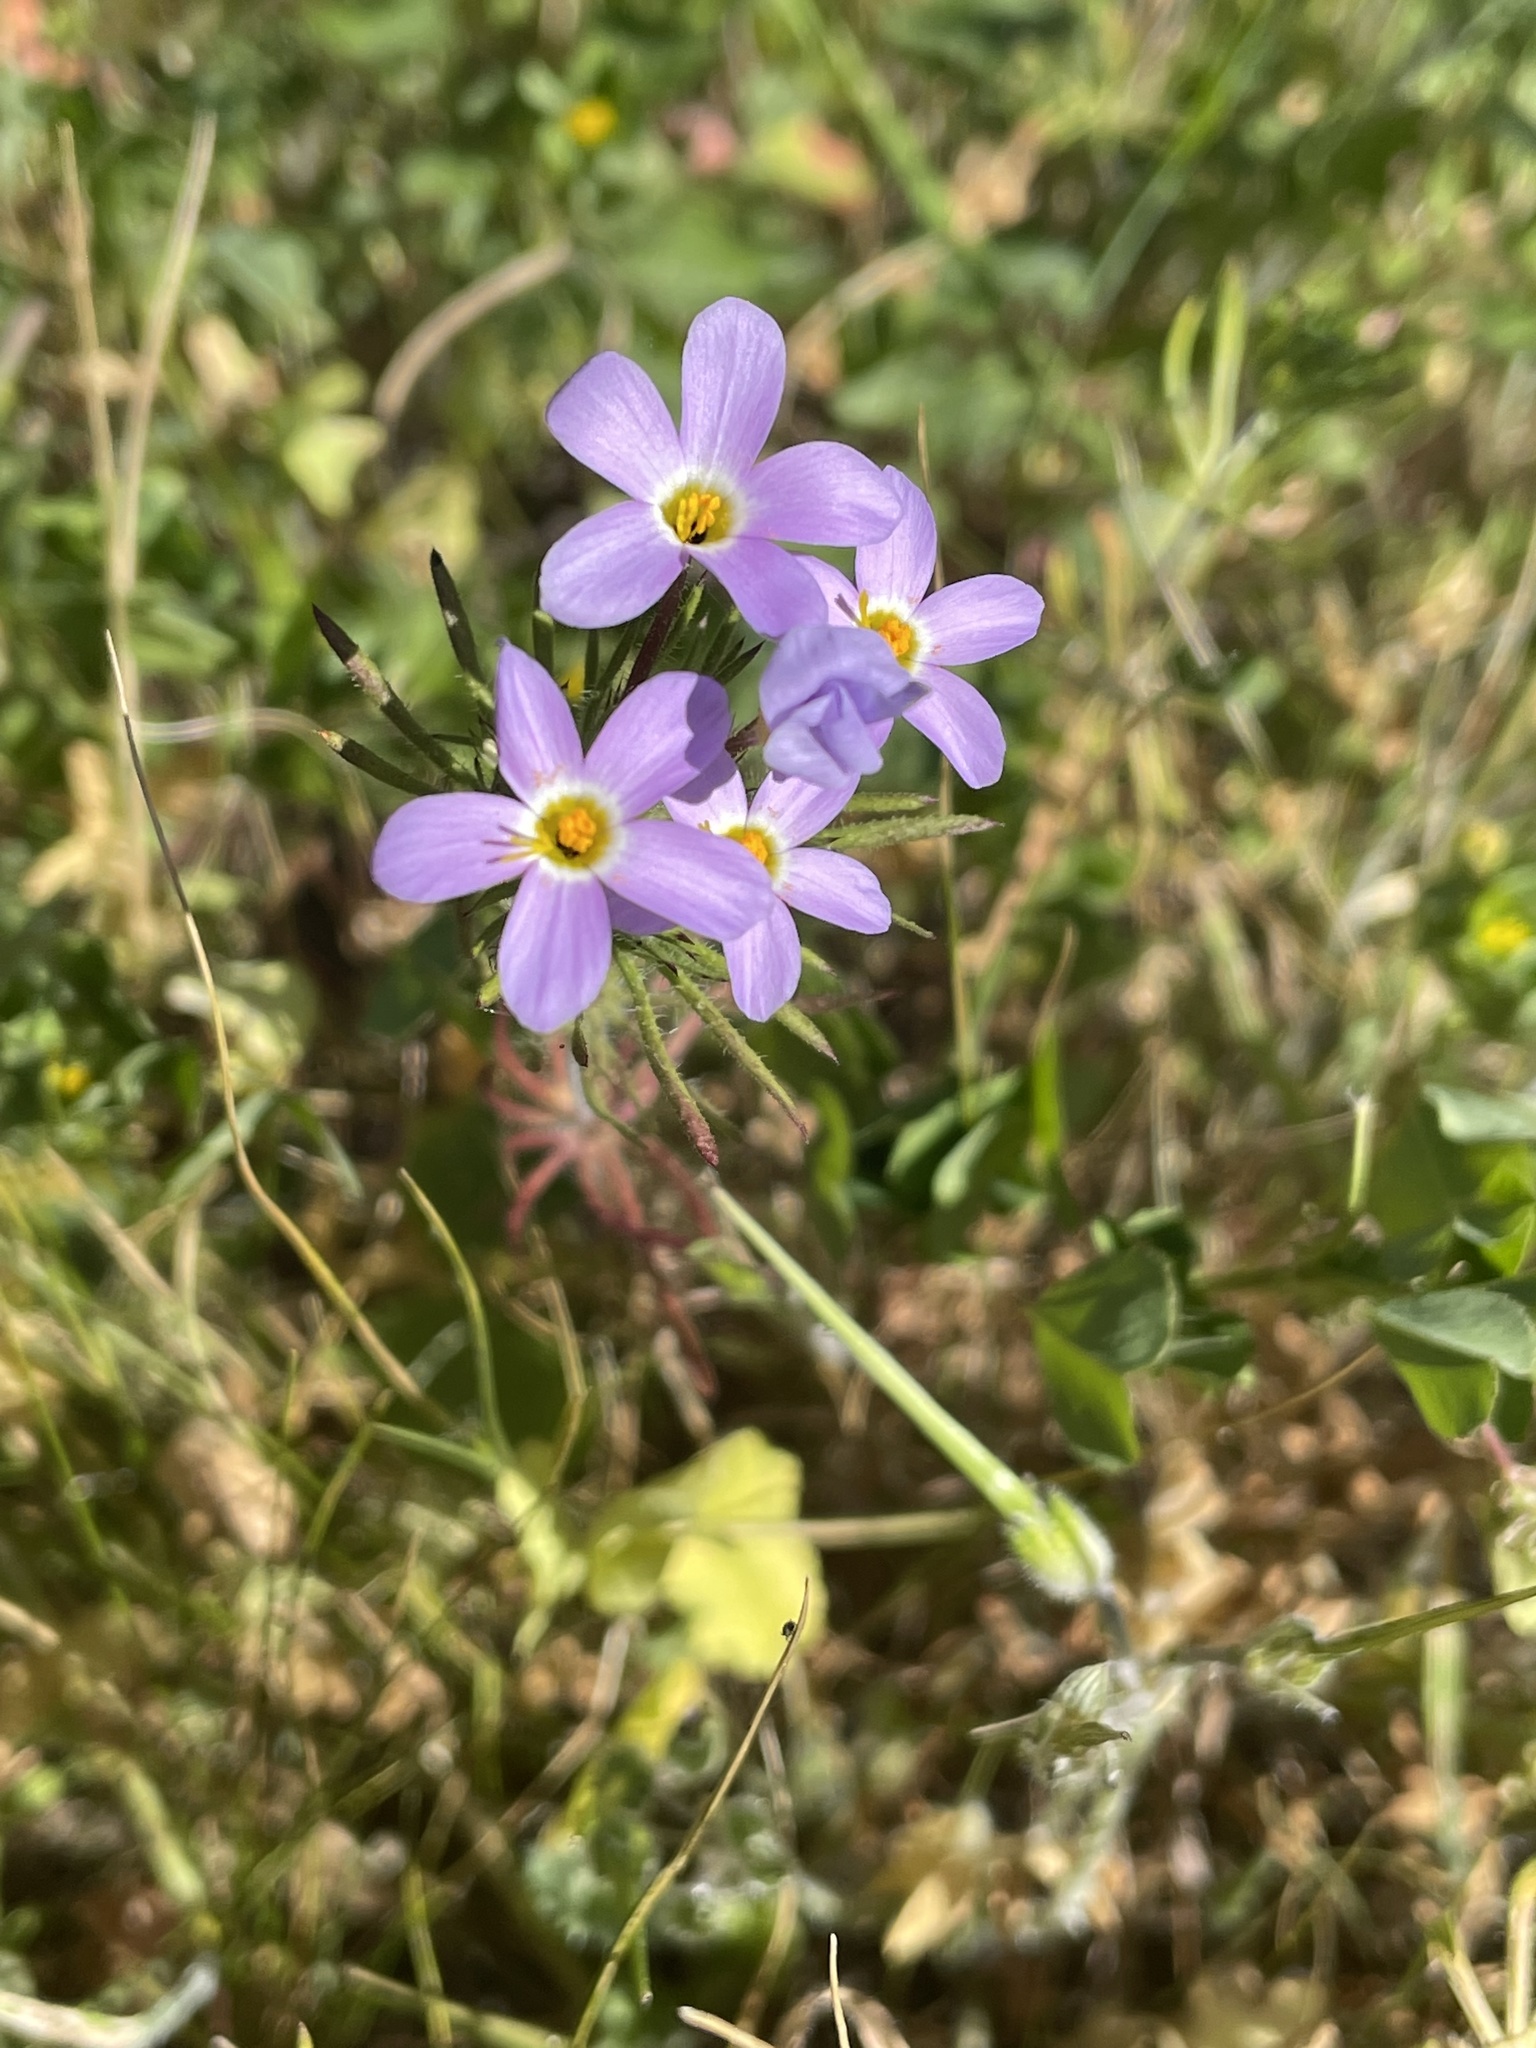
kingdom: Plantae
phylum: Tracheophyta
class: Magnoliopsida
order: Ericales
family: Polemoniaceae
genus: Leptosiphon
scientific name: Leptosiphon androsaceus
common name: False babystars
